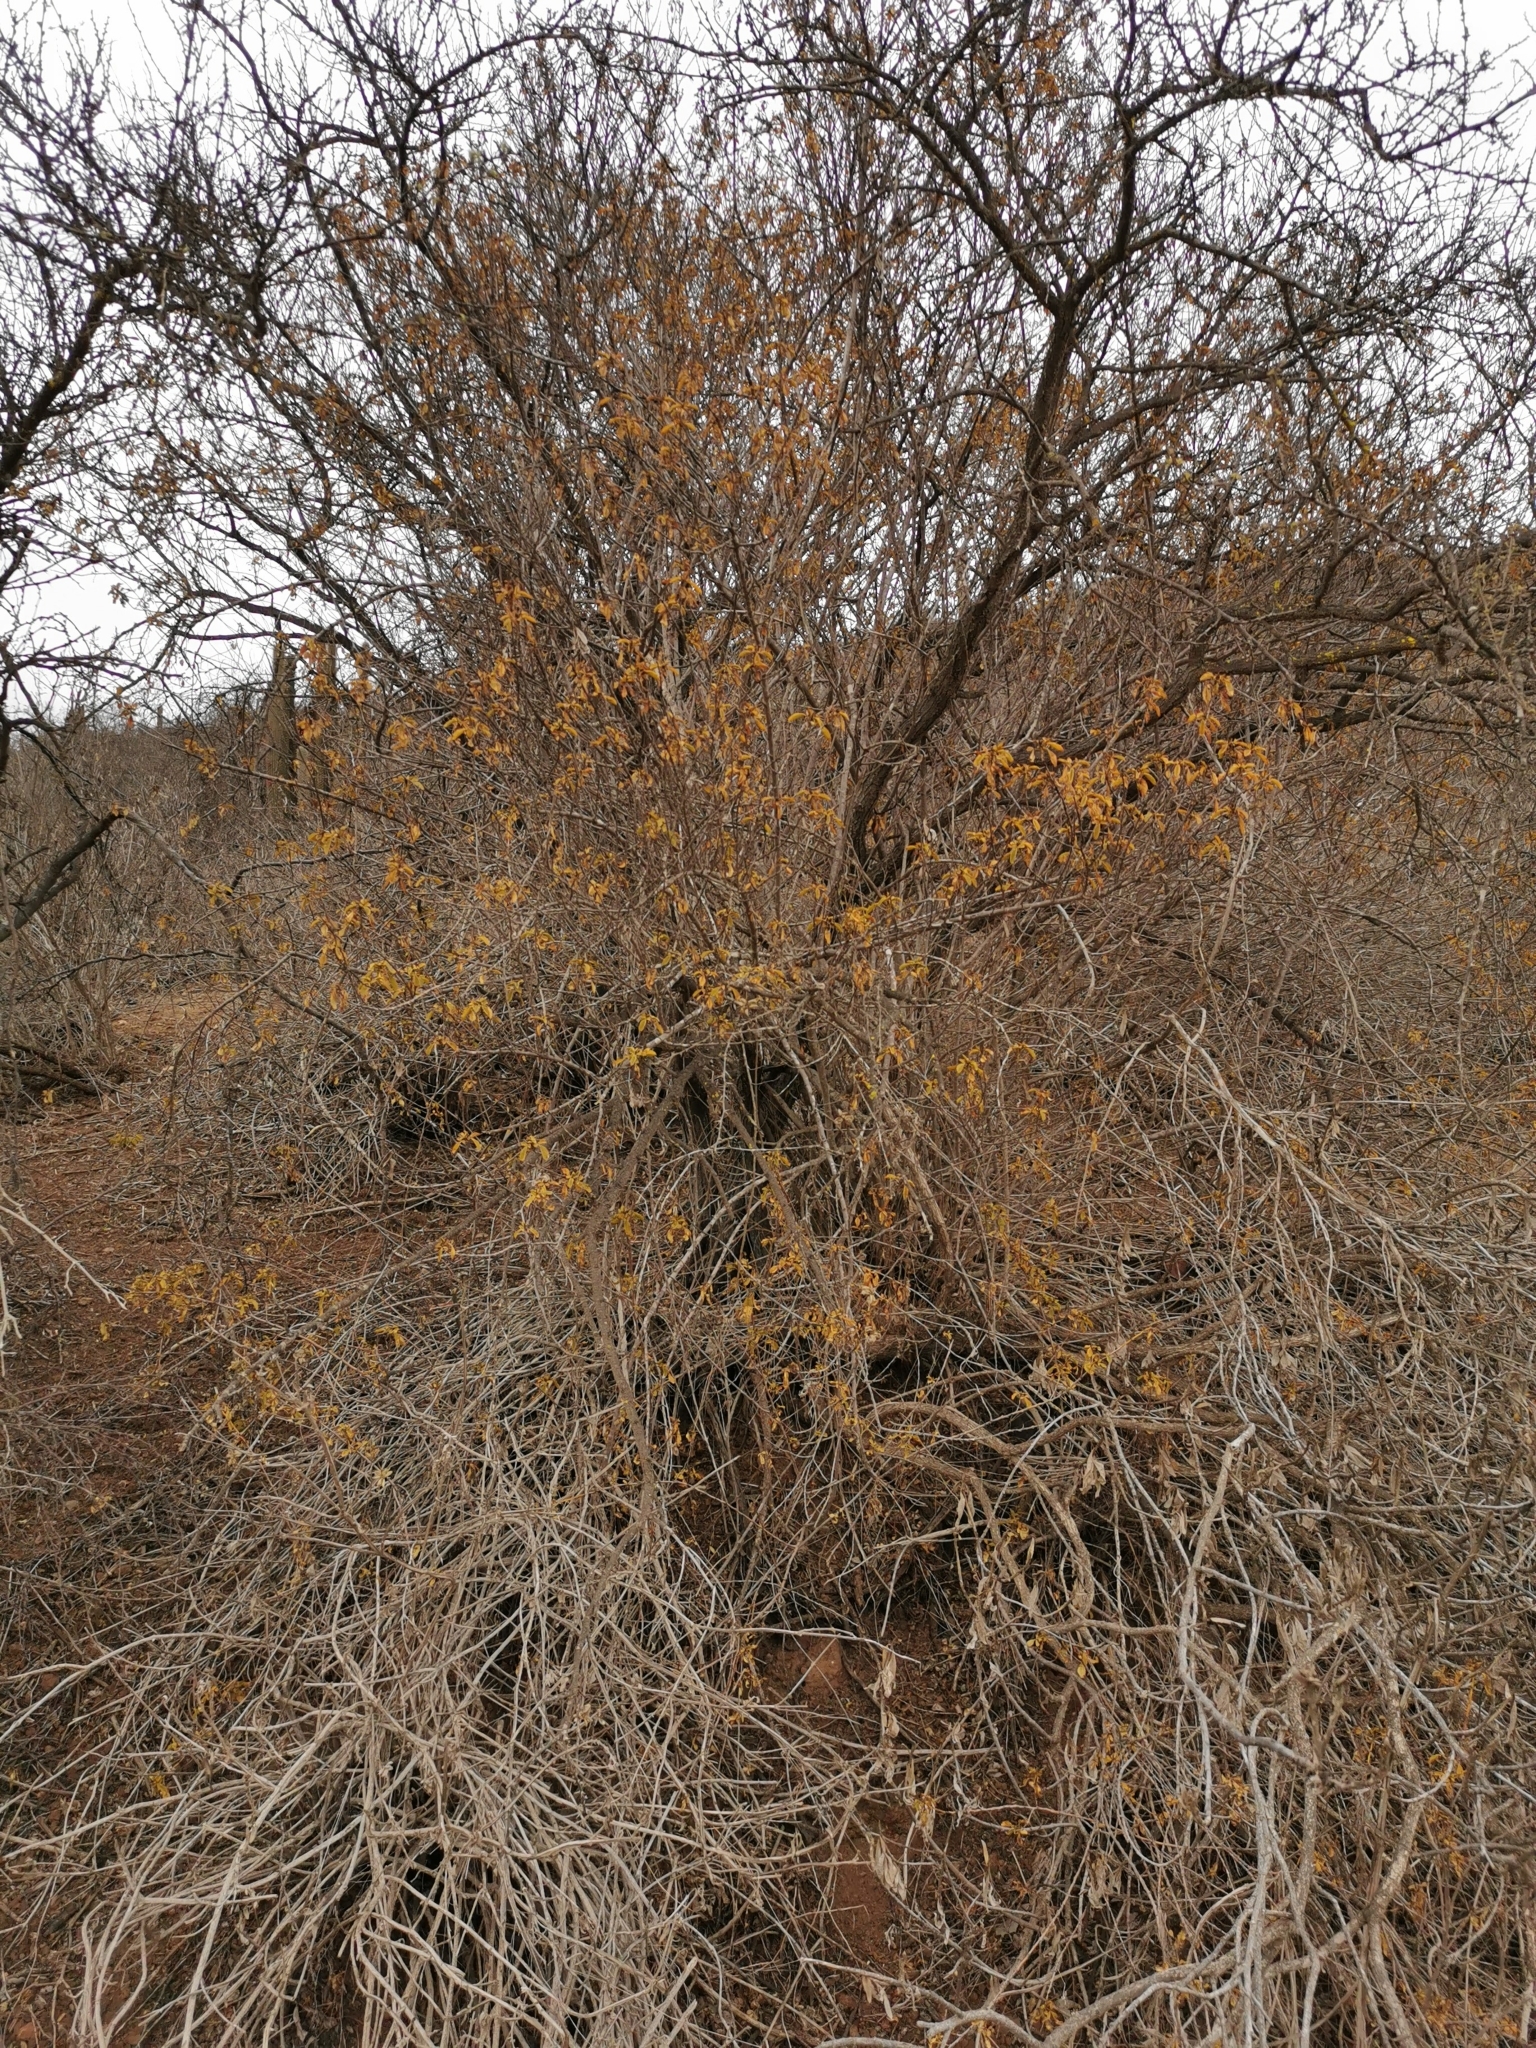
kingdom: Plantae
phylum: Tracheophyta
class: Magnoliopsida
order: Sapindales
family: Sapindaceae
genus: Llagunoa
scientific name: Llagunoa glandulosa
